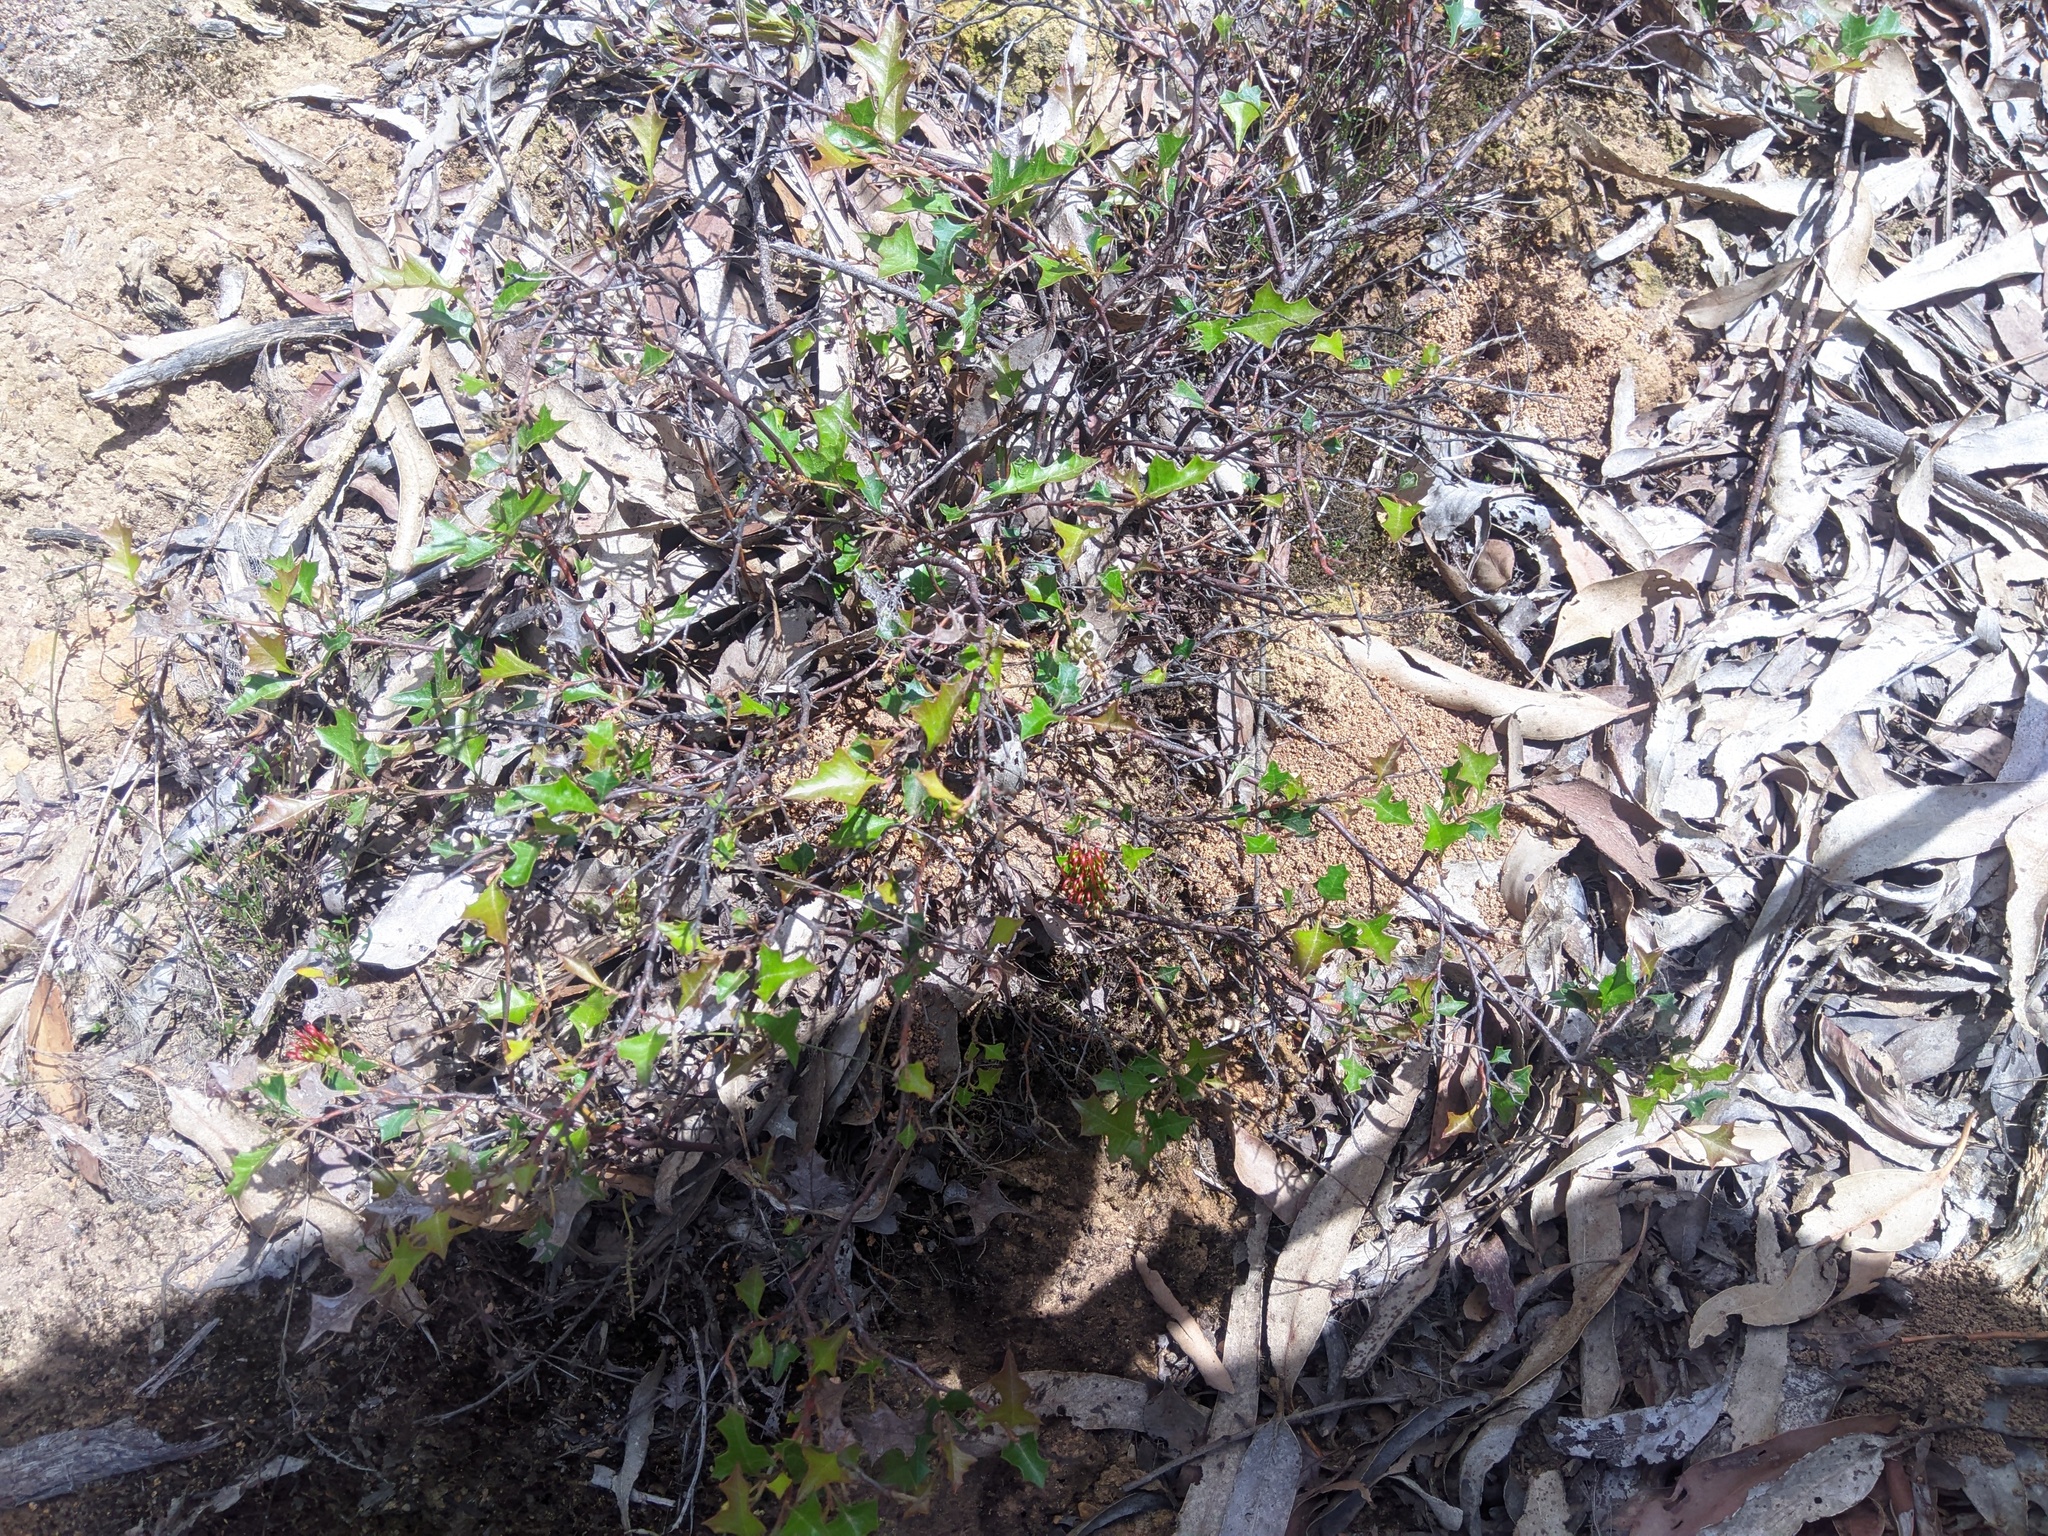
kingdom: Plantae
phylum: Tracheophyta
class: Magnoliopsida
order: Proteales
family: Proteaceae
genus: Grevillea
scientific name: Grevillea steiglitziana
